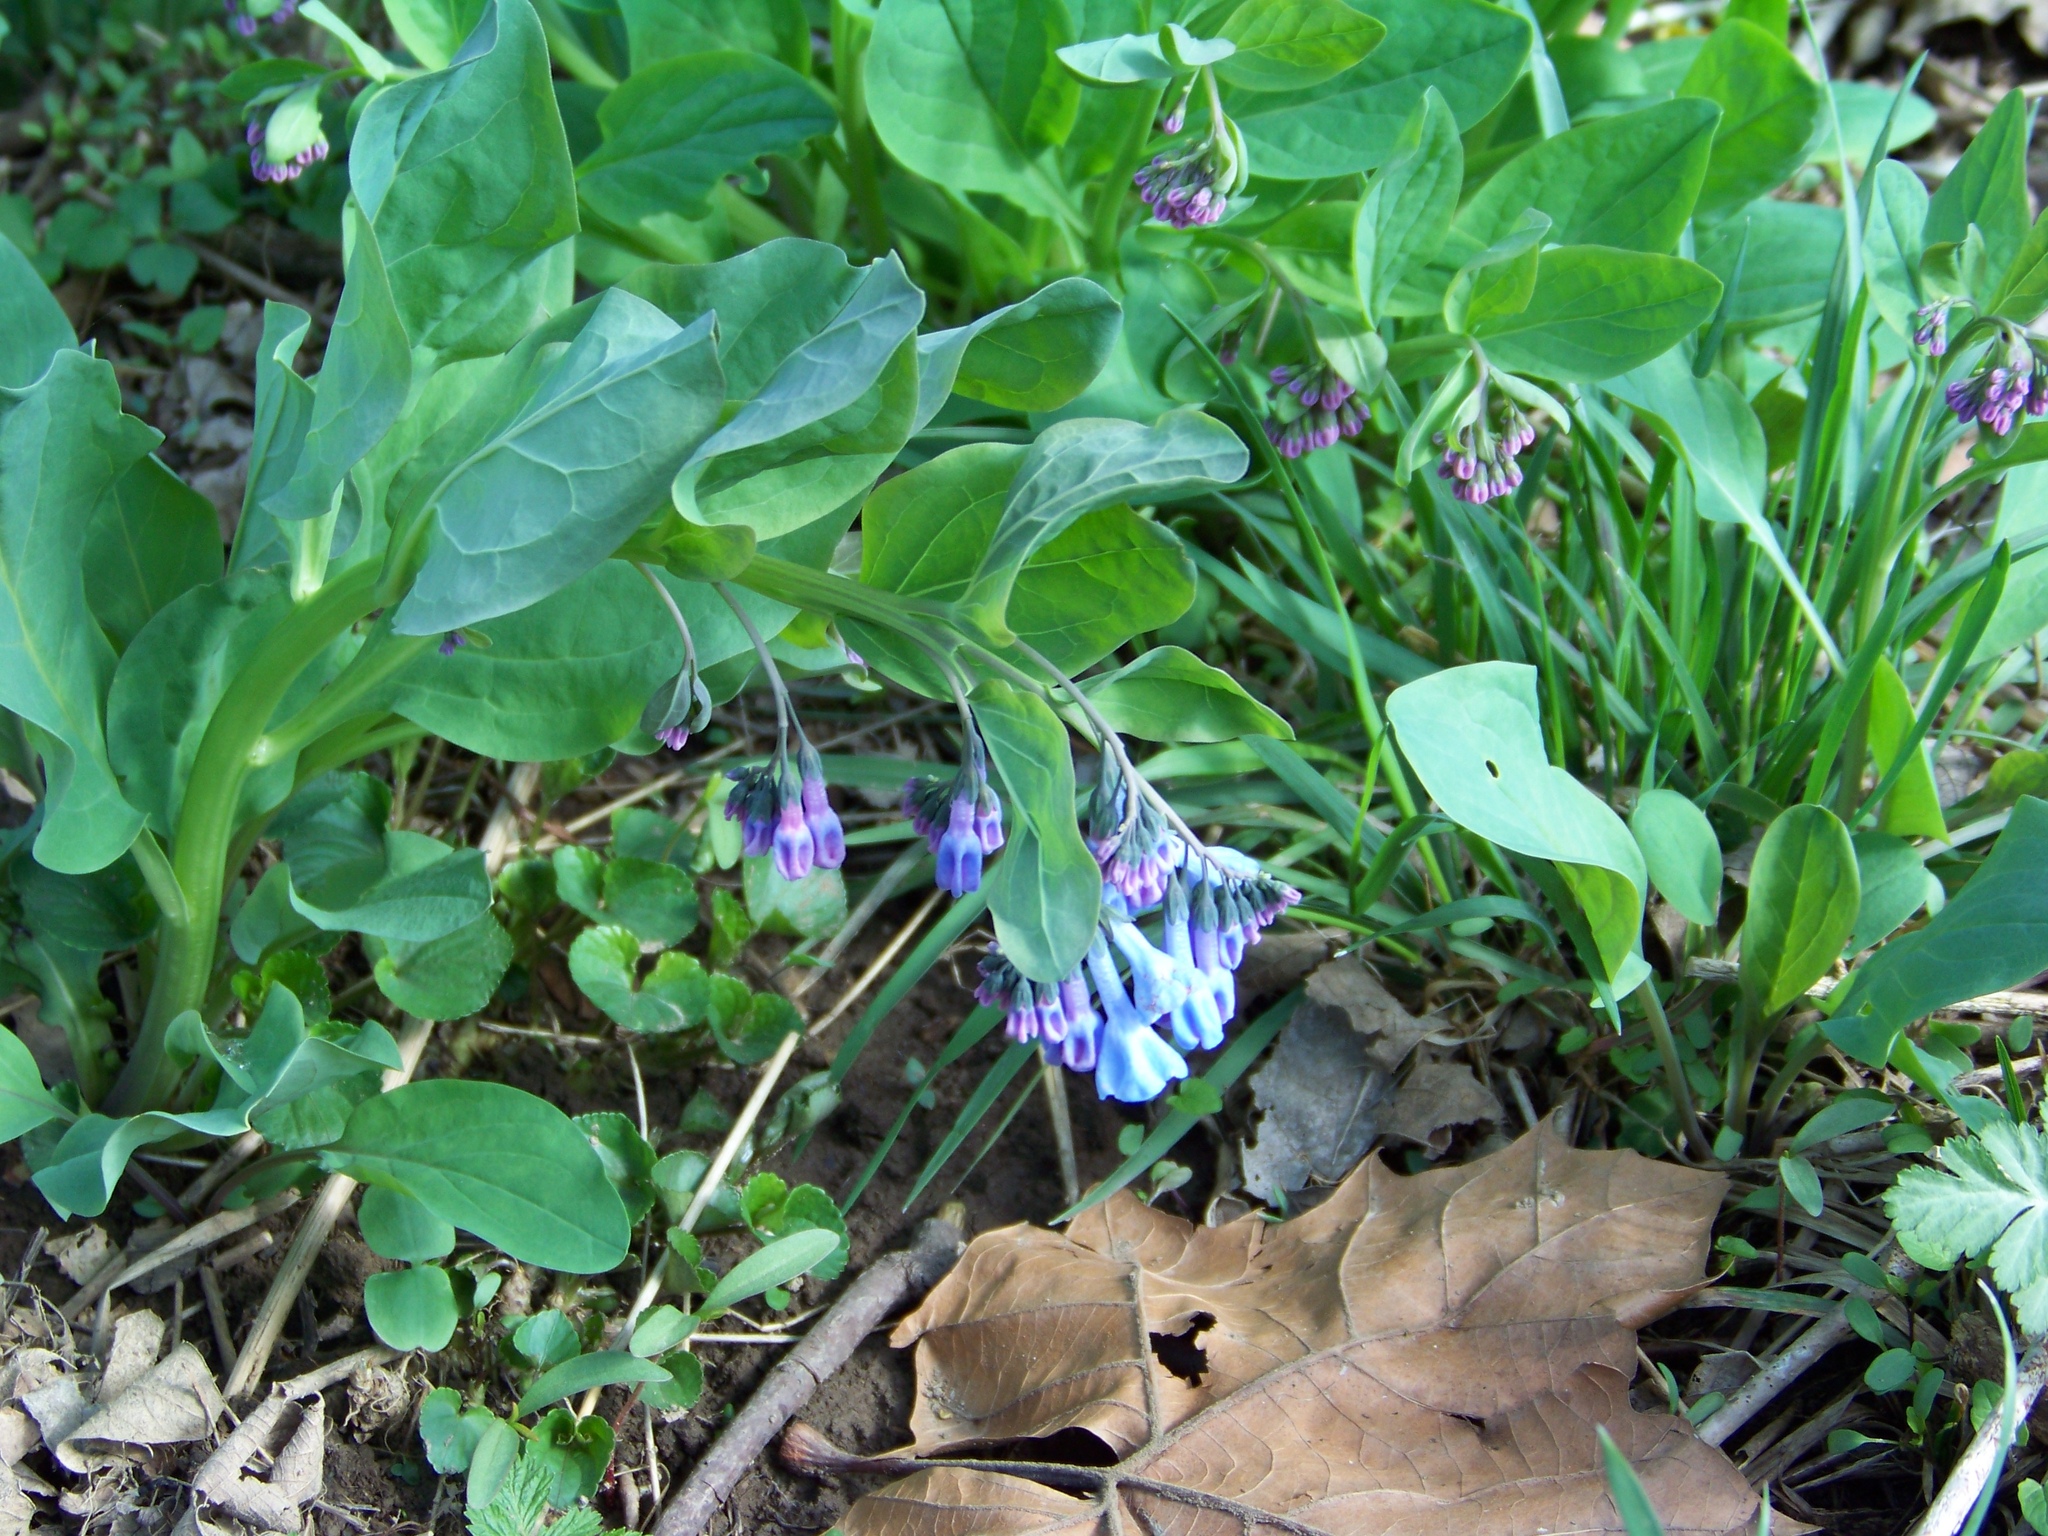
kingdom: Plantae
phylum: Tracheophyta
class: Magnoliopsida
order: Boraginales
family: Boraginaceae
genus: Mertensia
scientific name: Mertensia virginica
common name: Virginia bluebells
